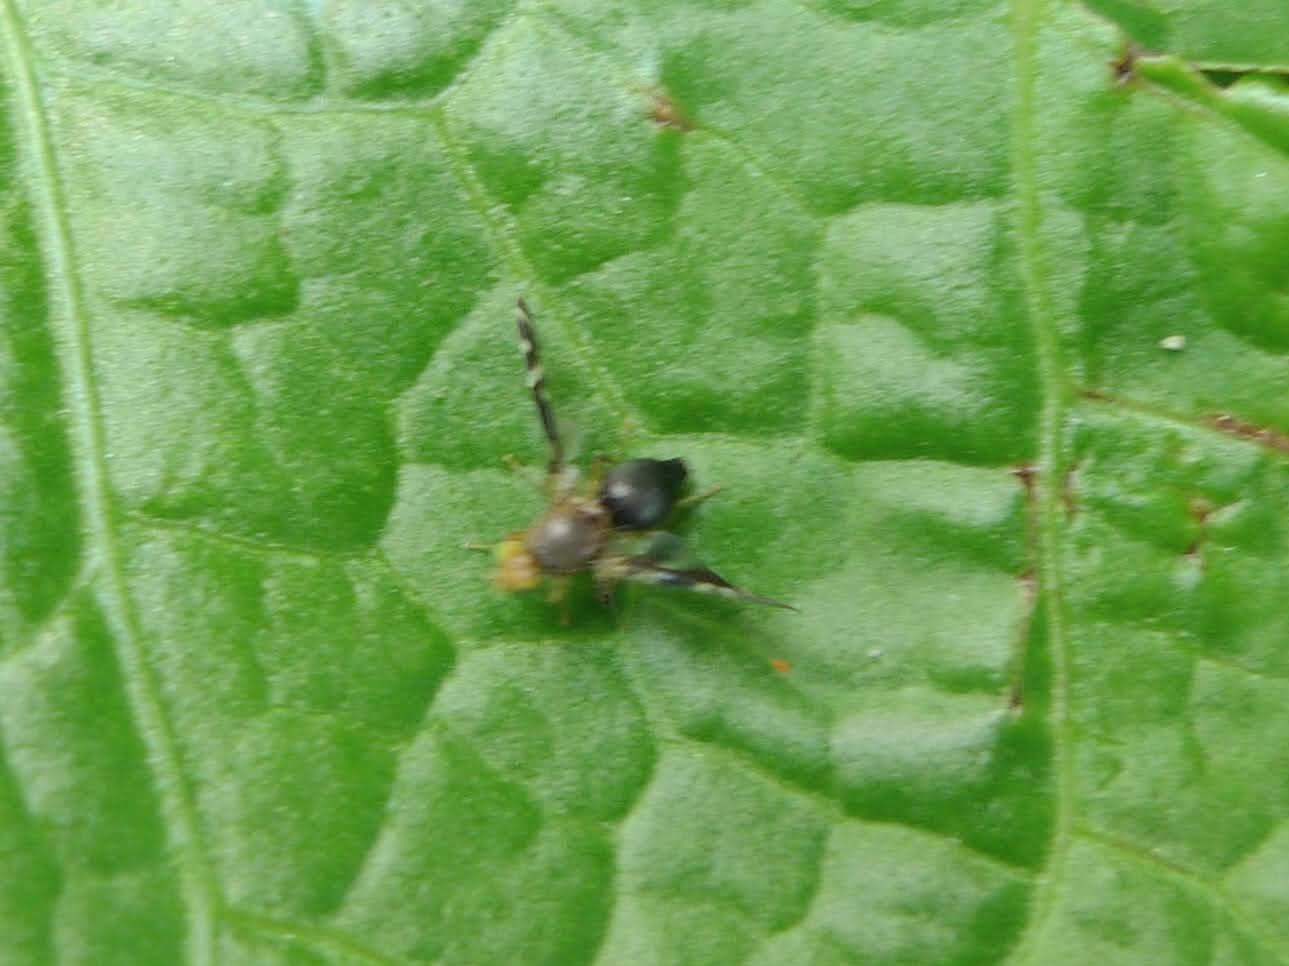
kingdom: Animalia
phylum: Arthropoda
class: Insecta
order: Diptera
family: Tephritidae
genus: Philophylla
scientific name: Philophylla caesio
